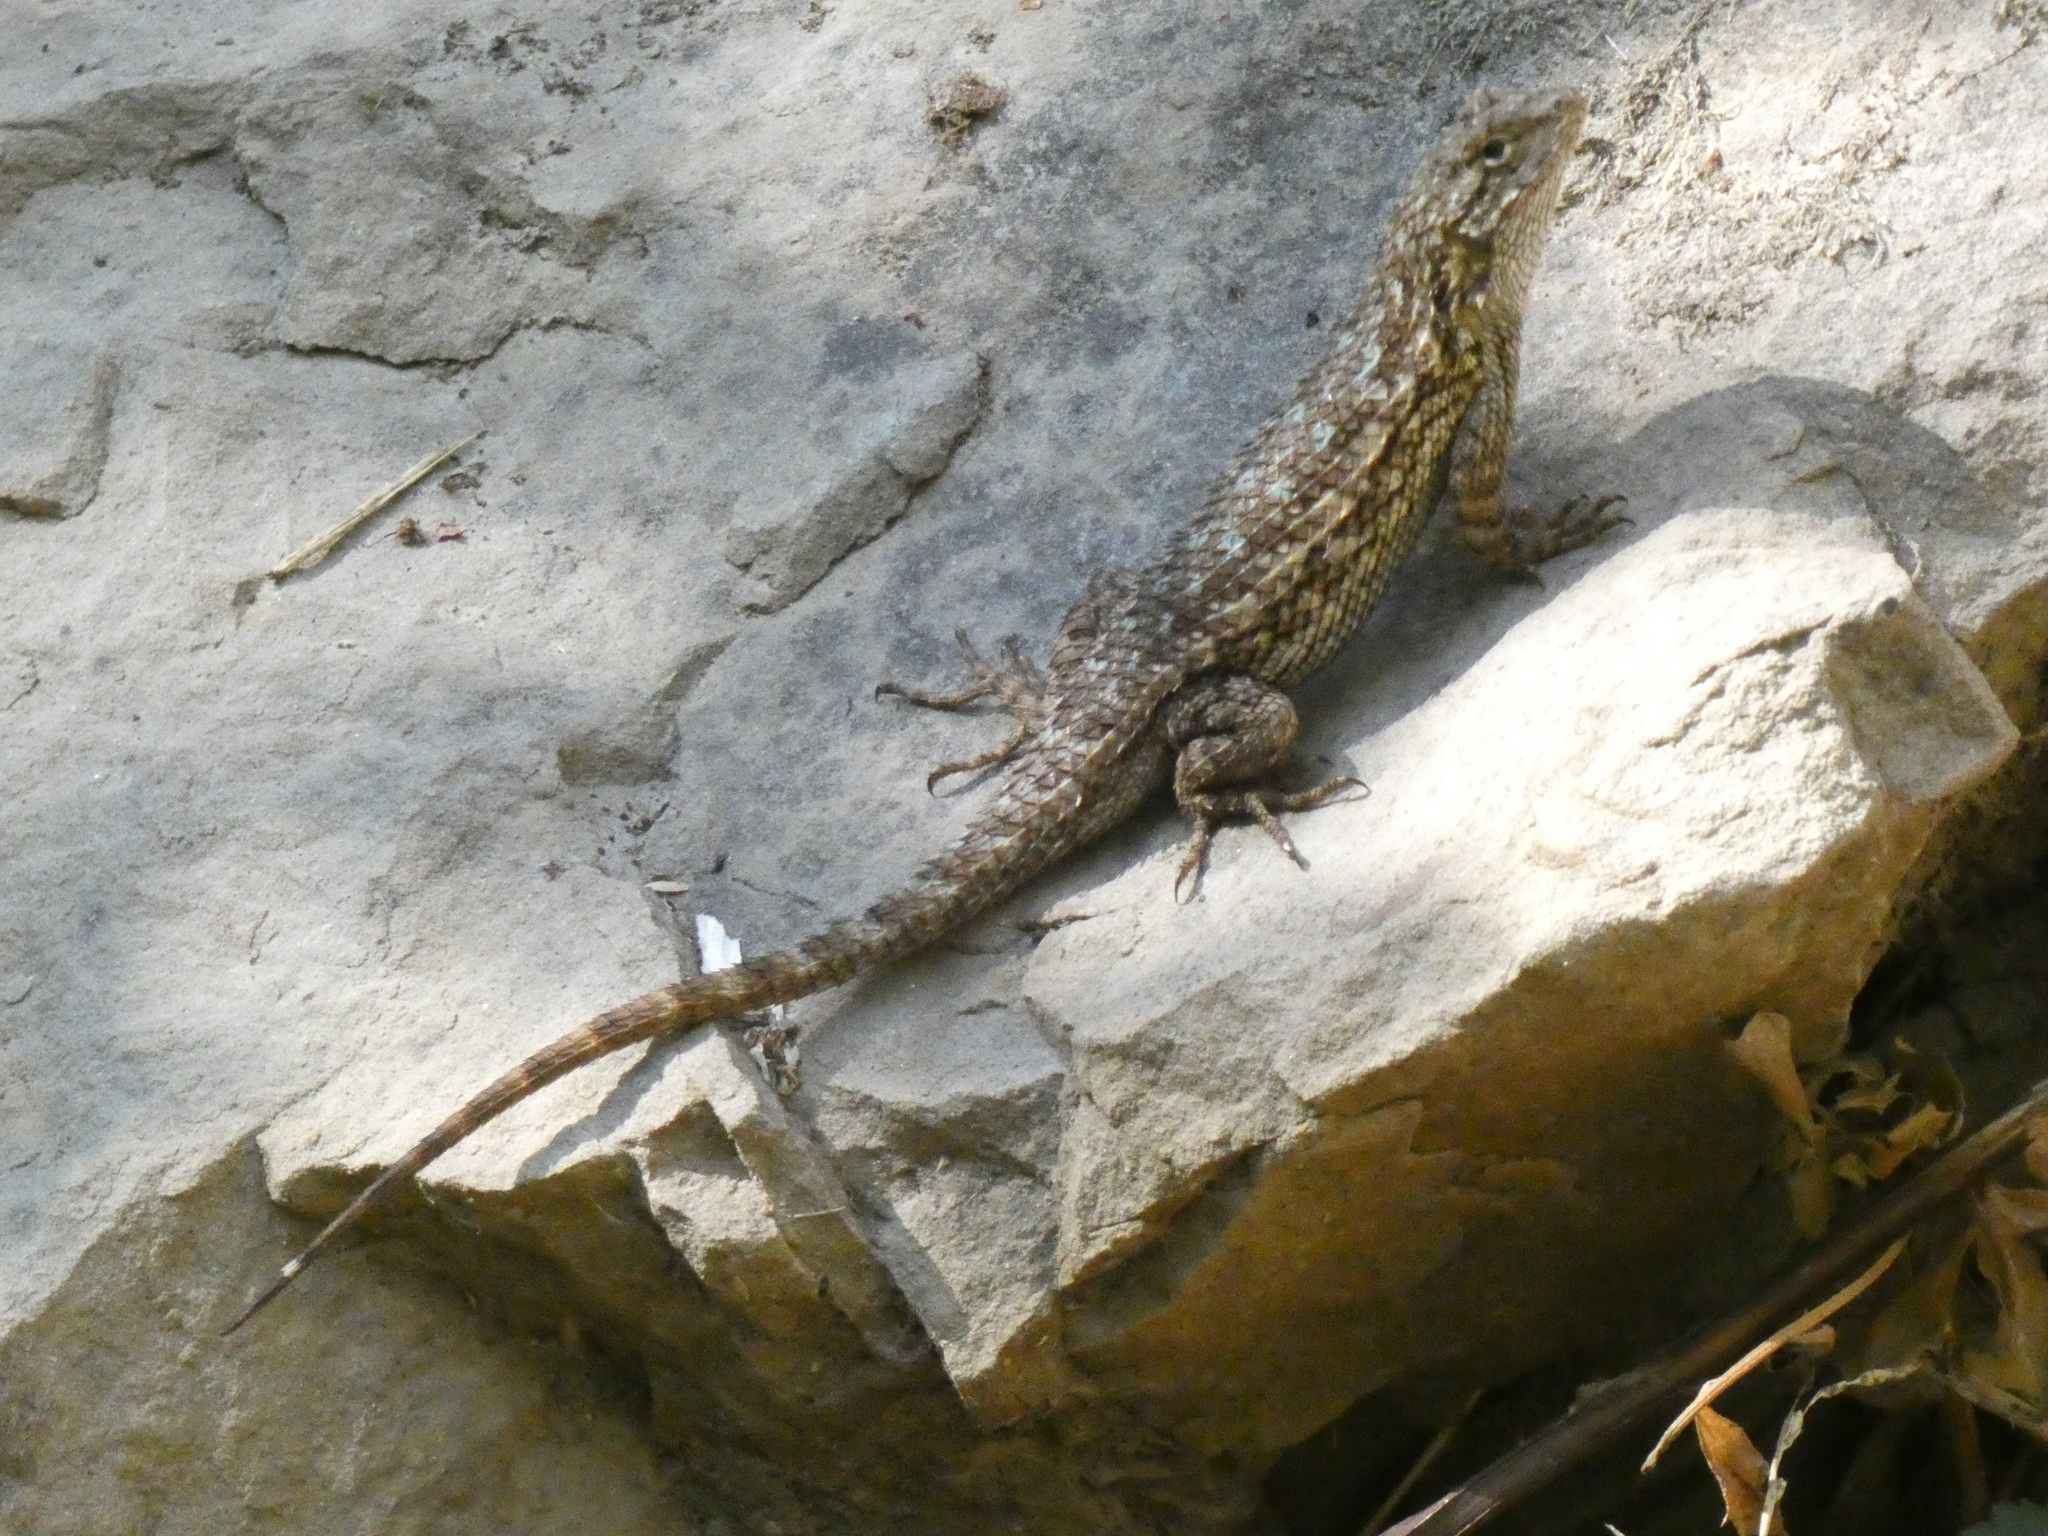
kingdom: Animalia
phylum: Chordata
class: Squamata
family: Phrynosomatidae
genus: Sceloporus
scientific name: Sceloporus occidentalis
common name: Western fence lizard
